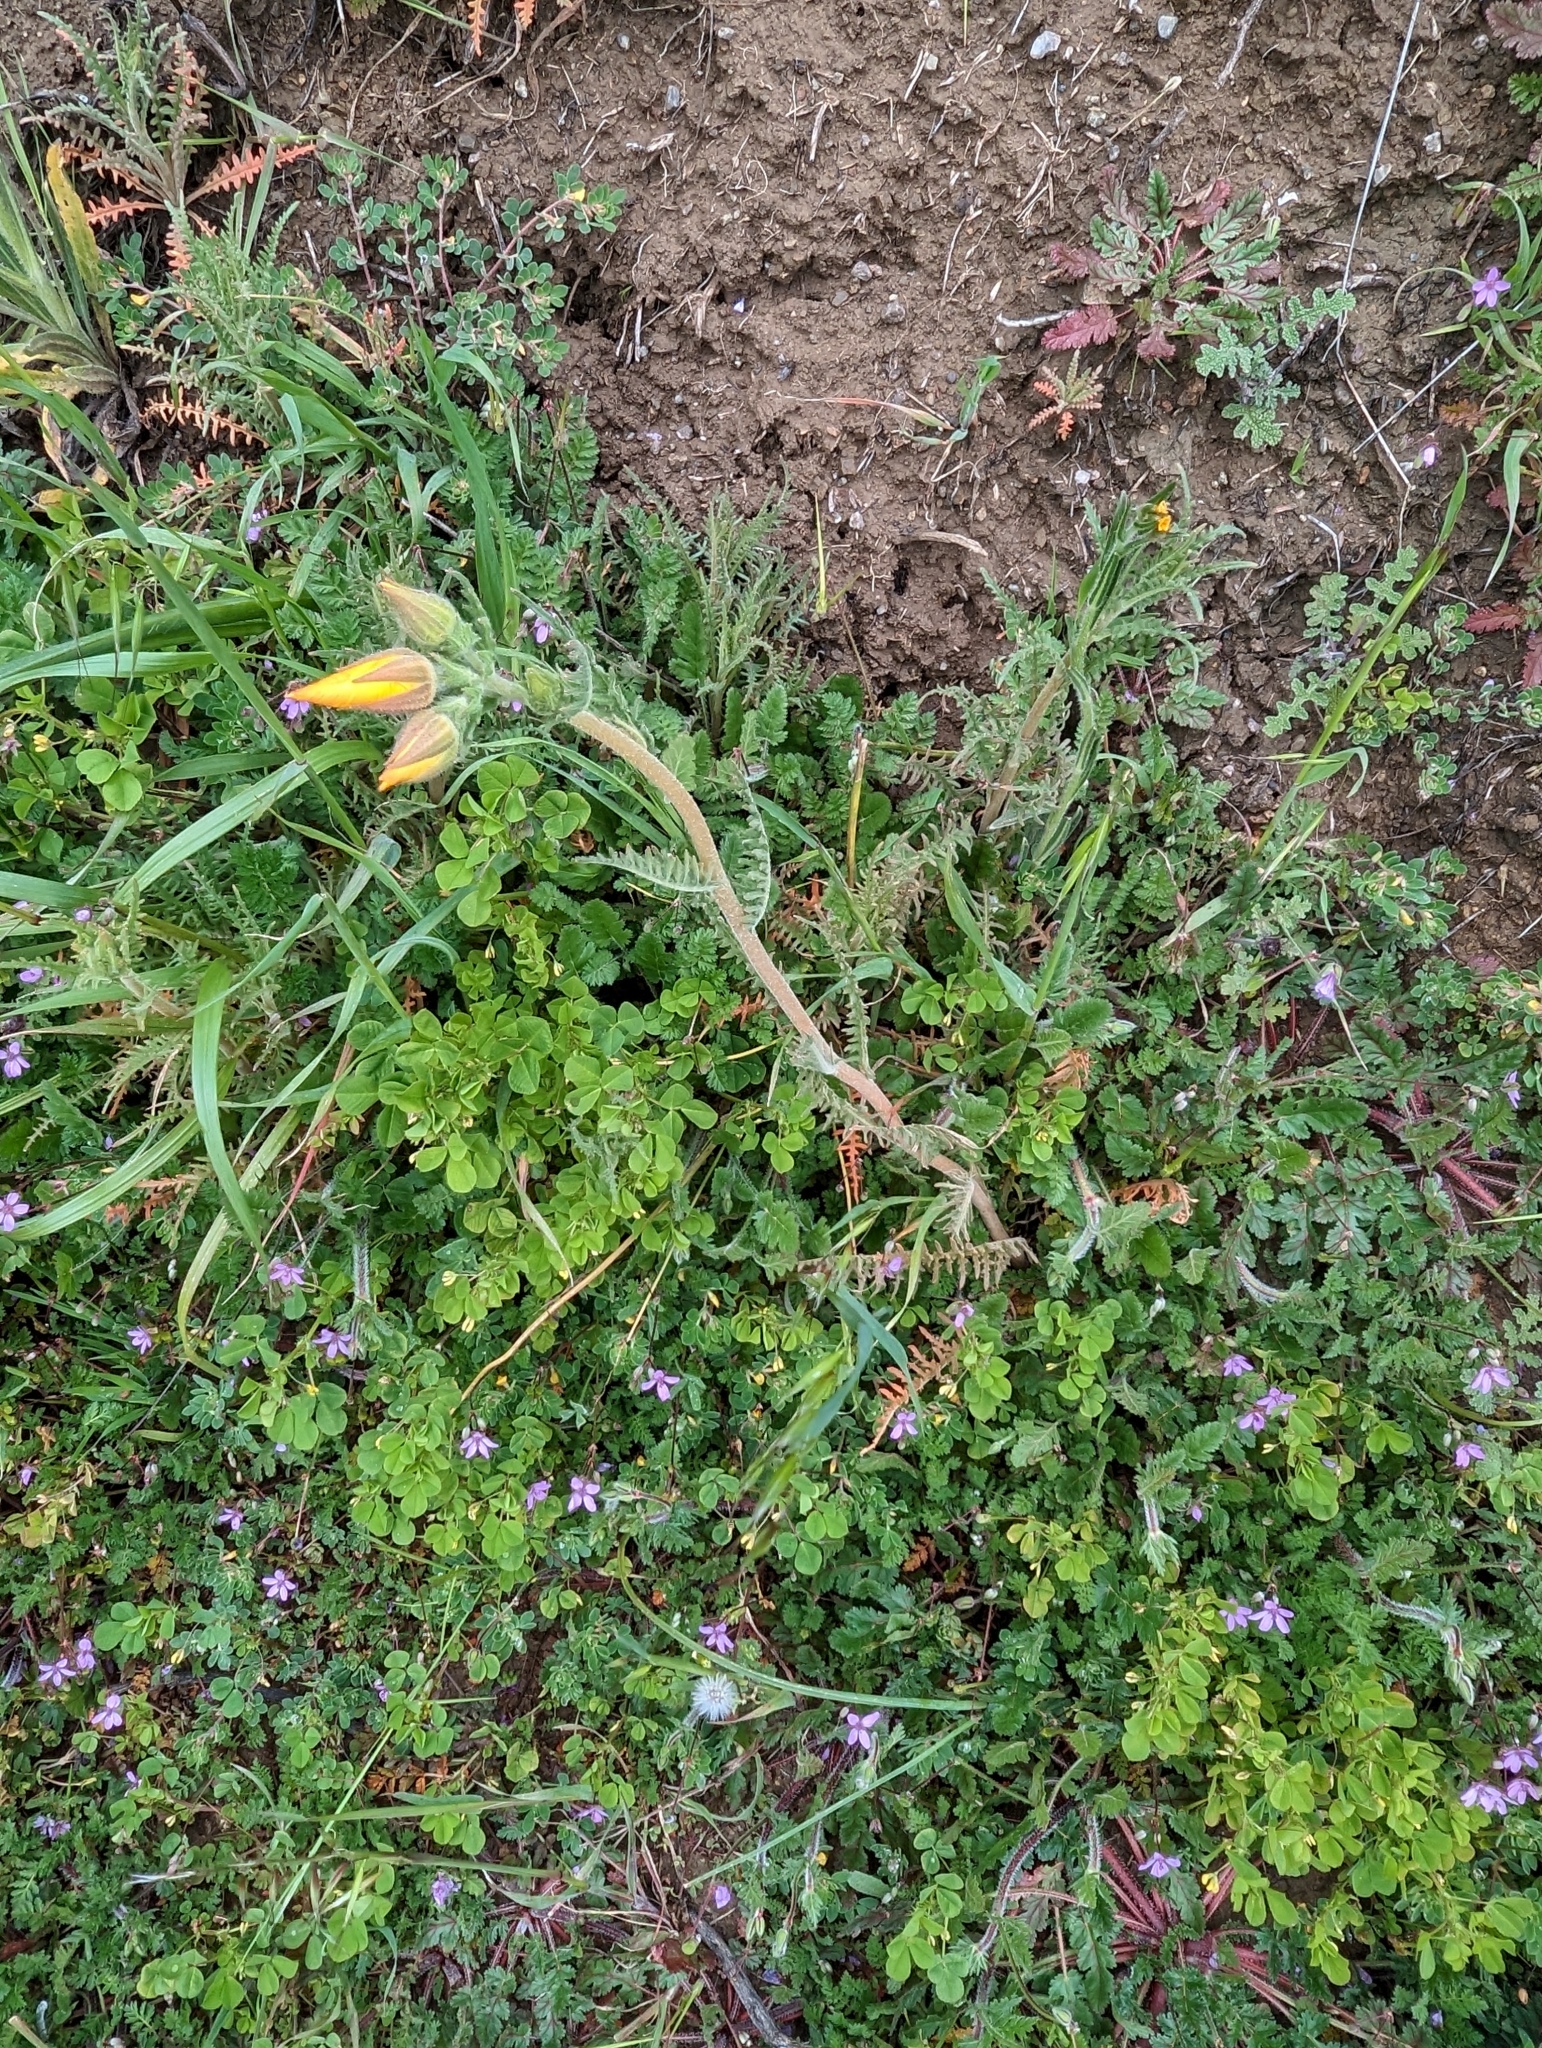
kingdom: Plantae
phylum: Tracheophyta
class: Magnoliopsida
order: Cornales
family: Loasaceae
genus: Mentzelia
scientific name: Mentzelia lindleyi
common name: Golden bartonia
